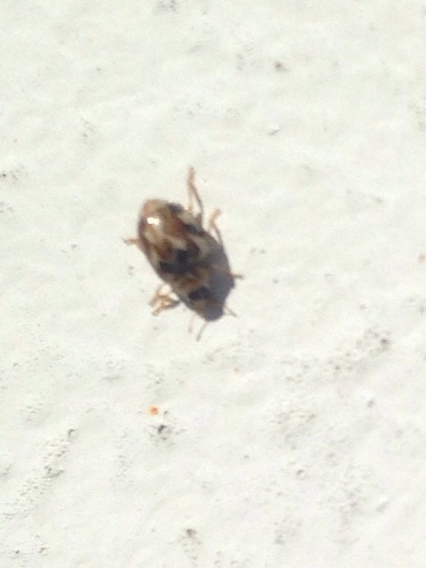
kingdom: Animalia
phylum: Arthropoda
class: Insecta
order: Coleoptera
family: Coccinellidae
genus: Psyllobora
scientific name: Psyllobora vigintimaculata
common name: Ladybird beetle
